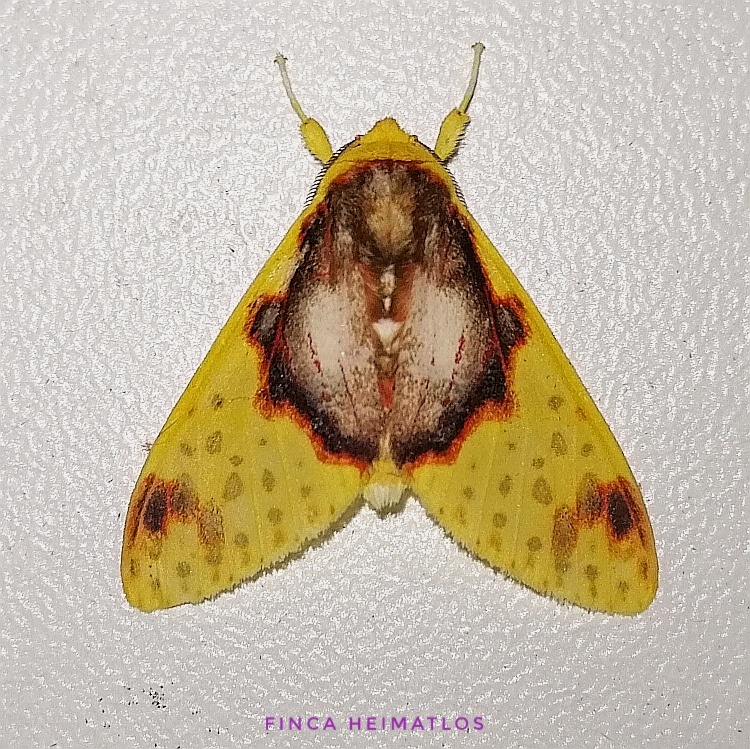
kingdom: Animalia
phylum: Arthropoda
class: Insecta
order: Lepidoptera
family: Erebidae
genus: Amaxia
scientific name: Amaxia flavicollis
